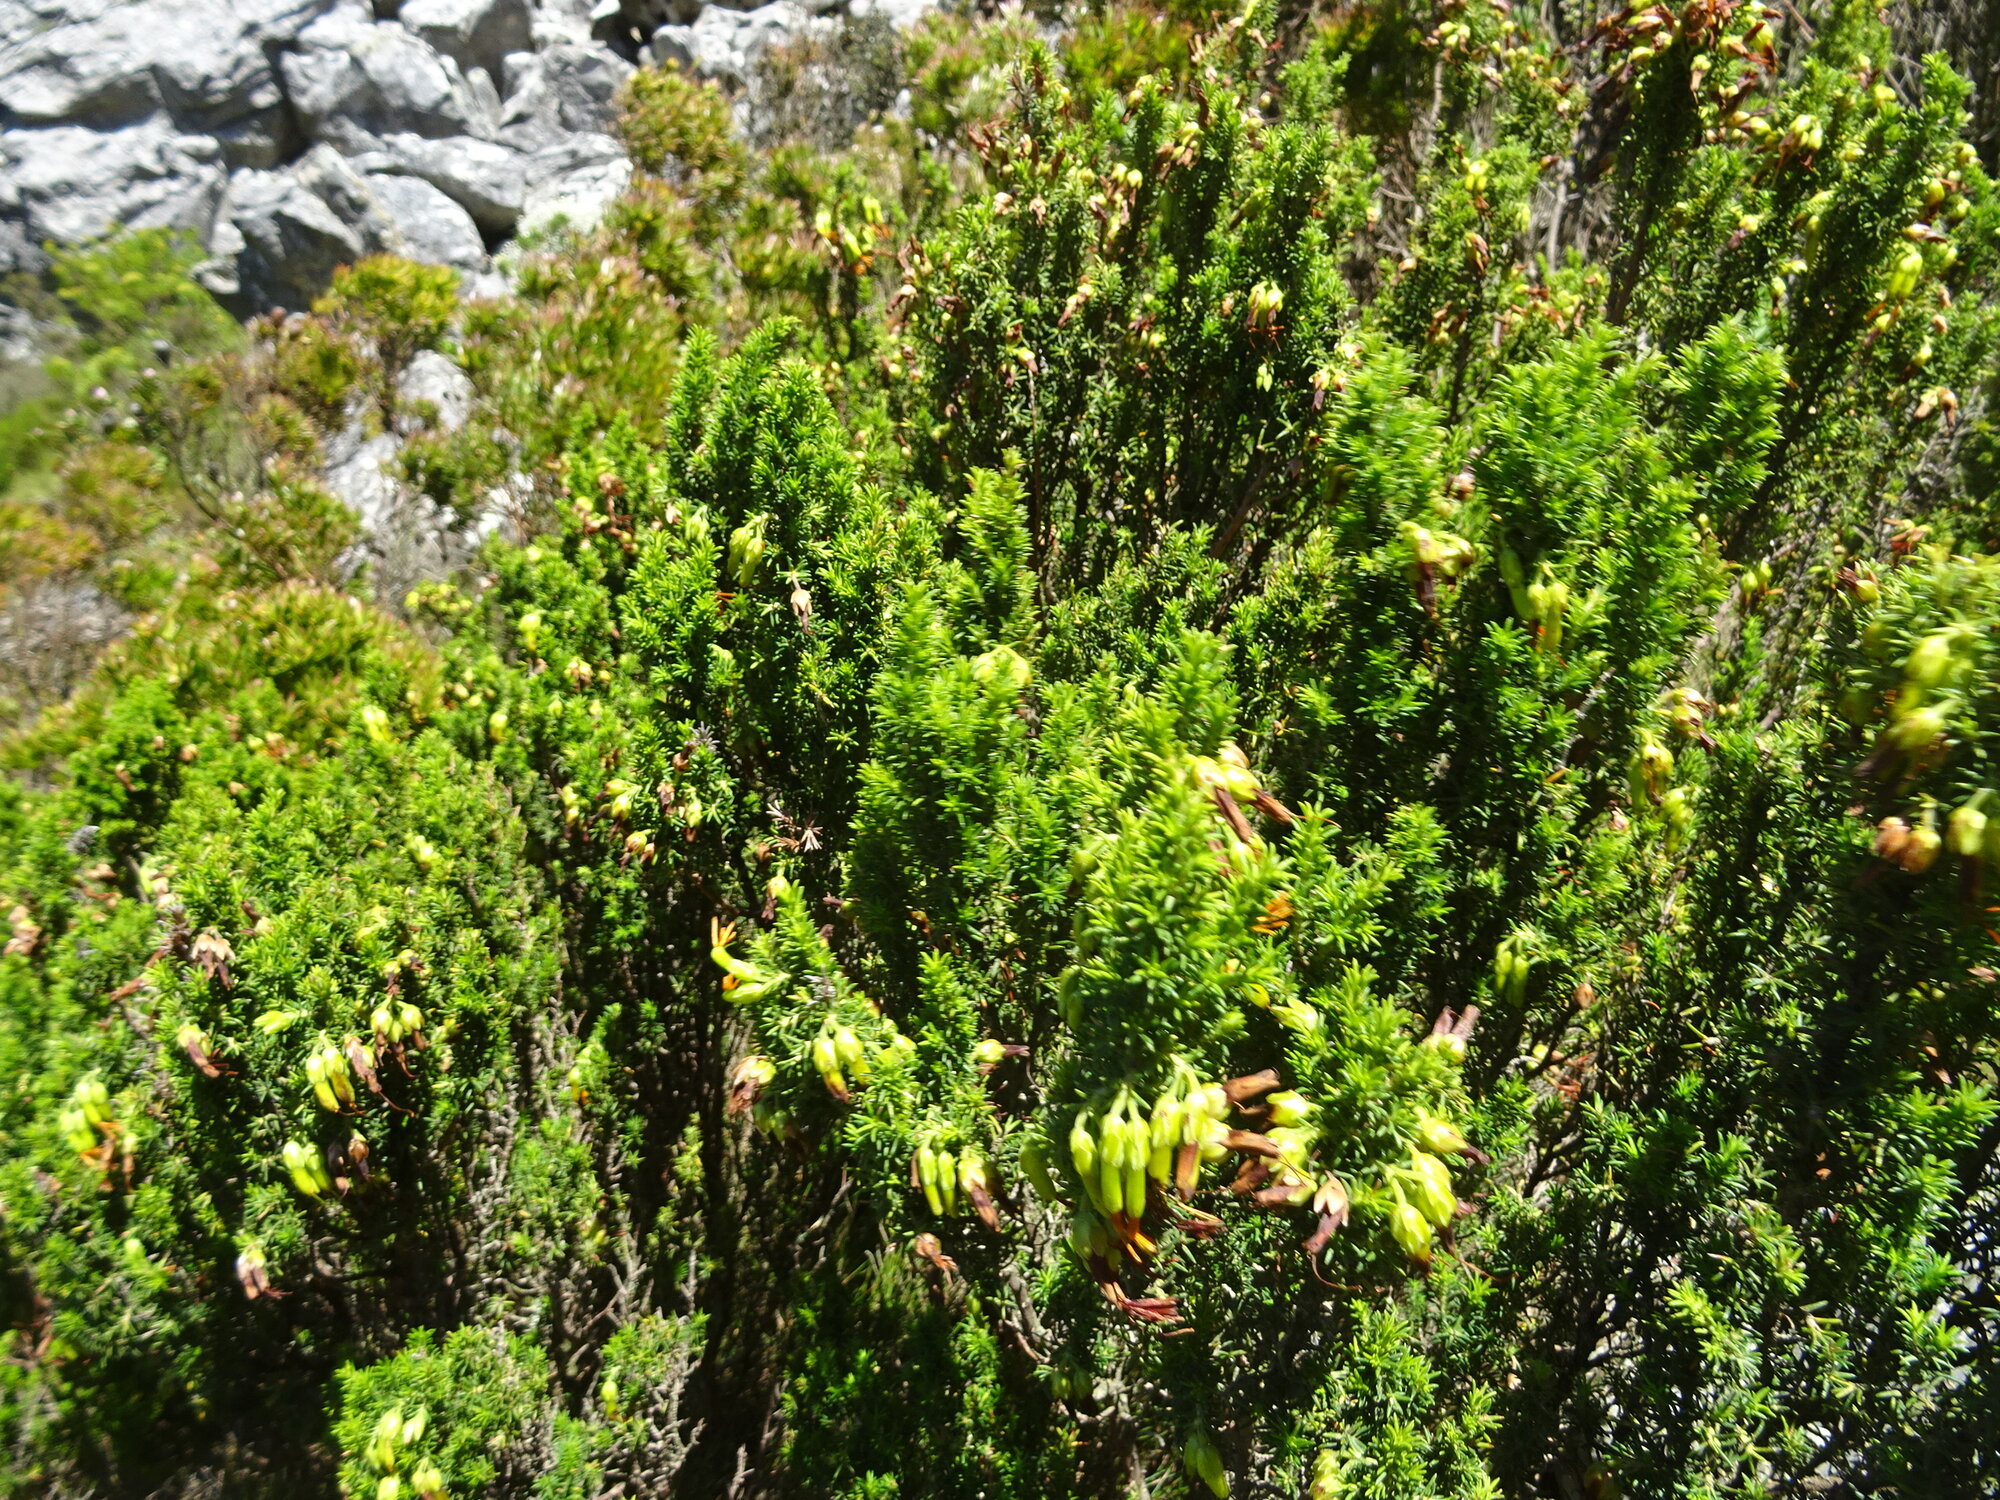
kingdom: Plantae
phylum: Tracheophyta
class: Magnoliopsida
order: Ericales
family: Ericaceae
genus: Erica
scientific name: Erica coccinea
